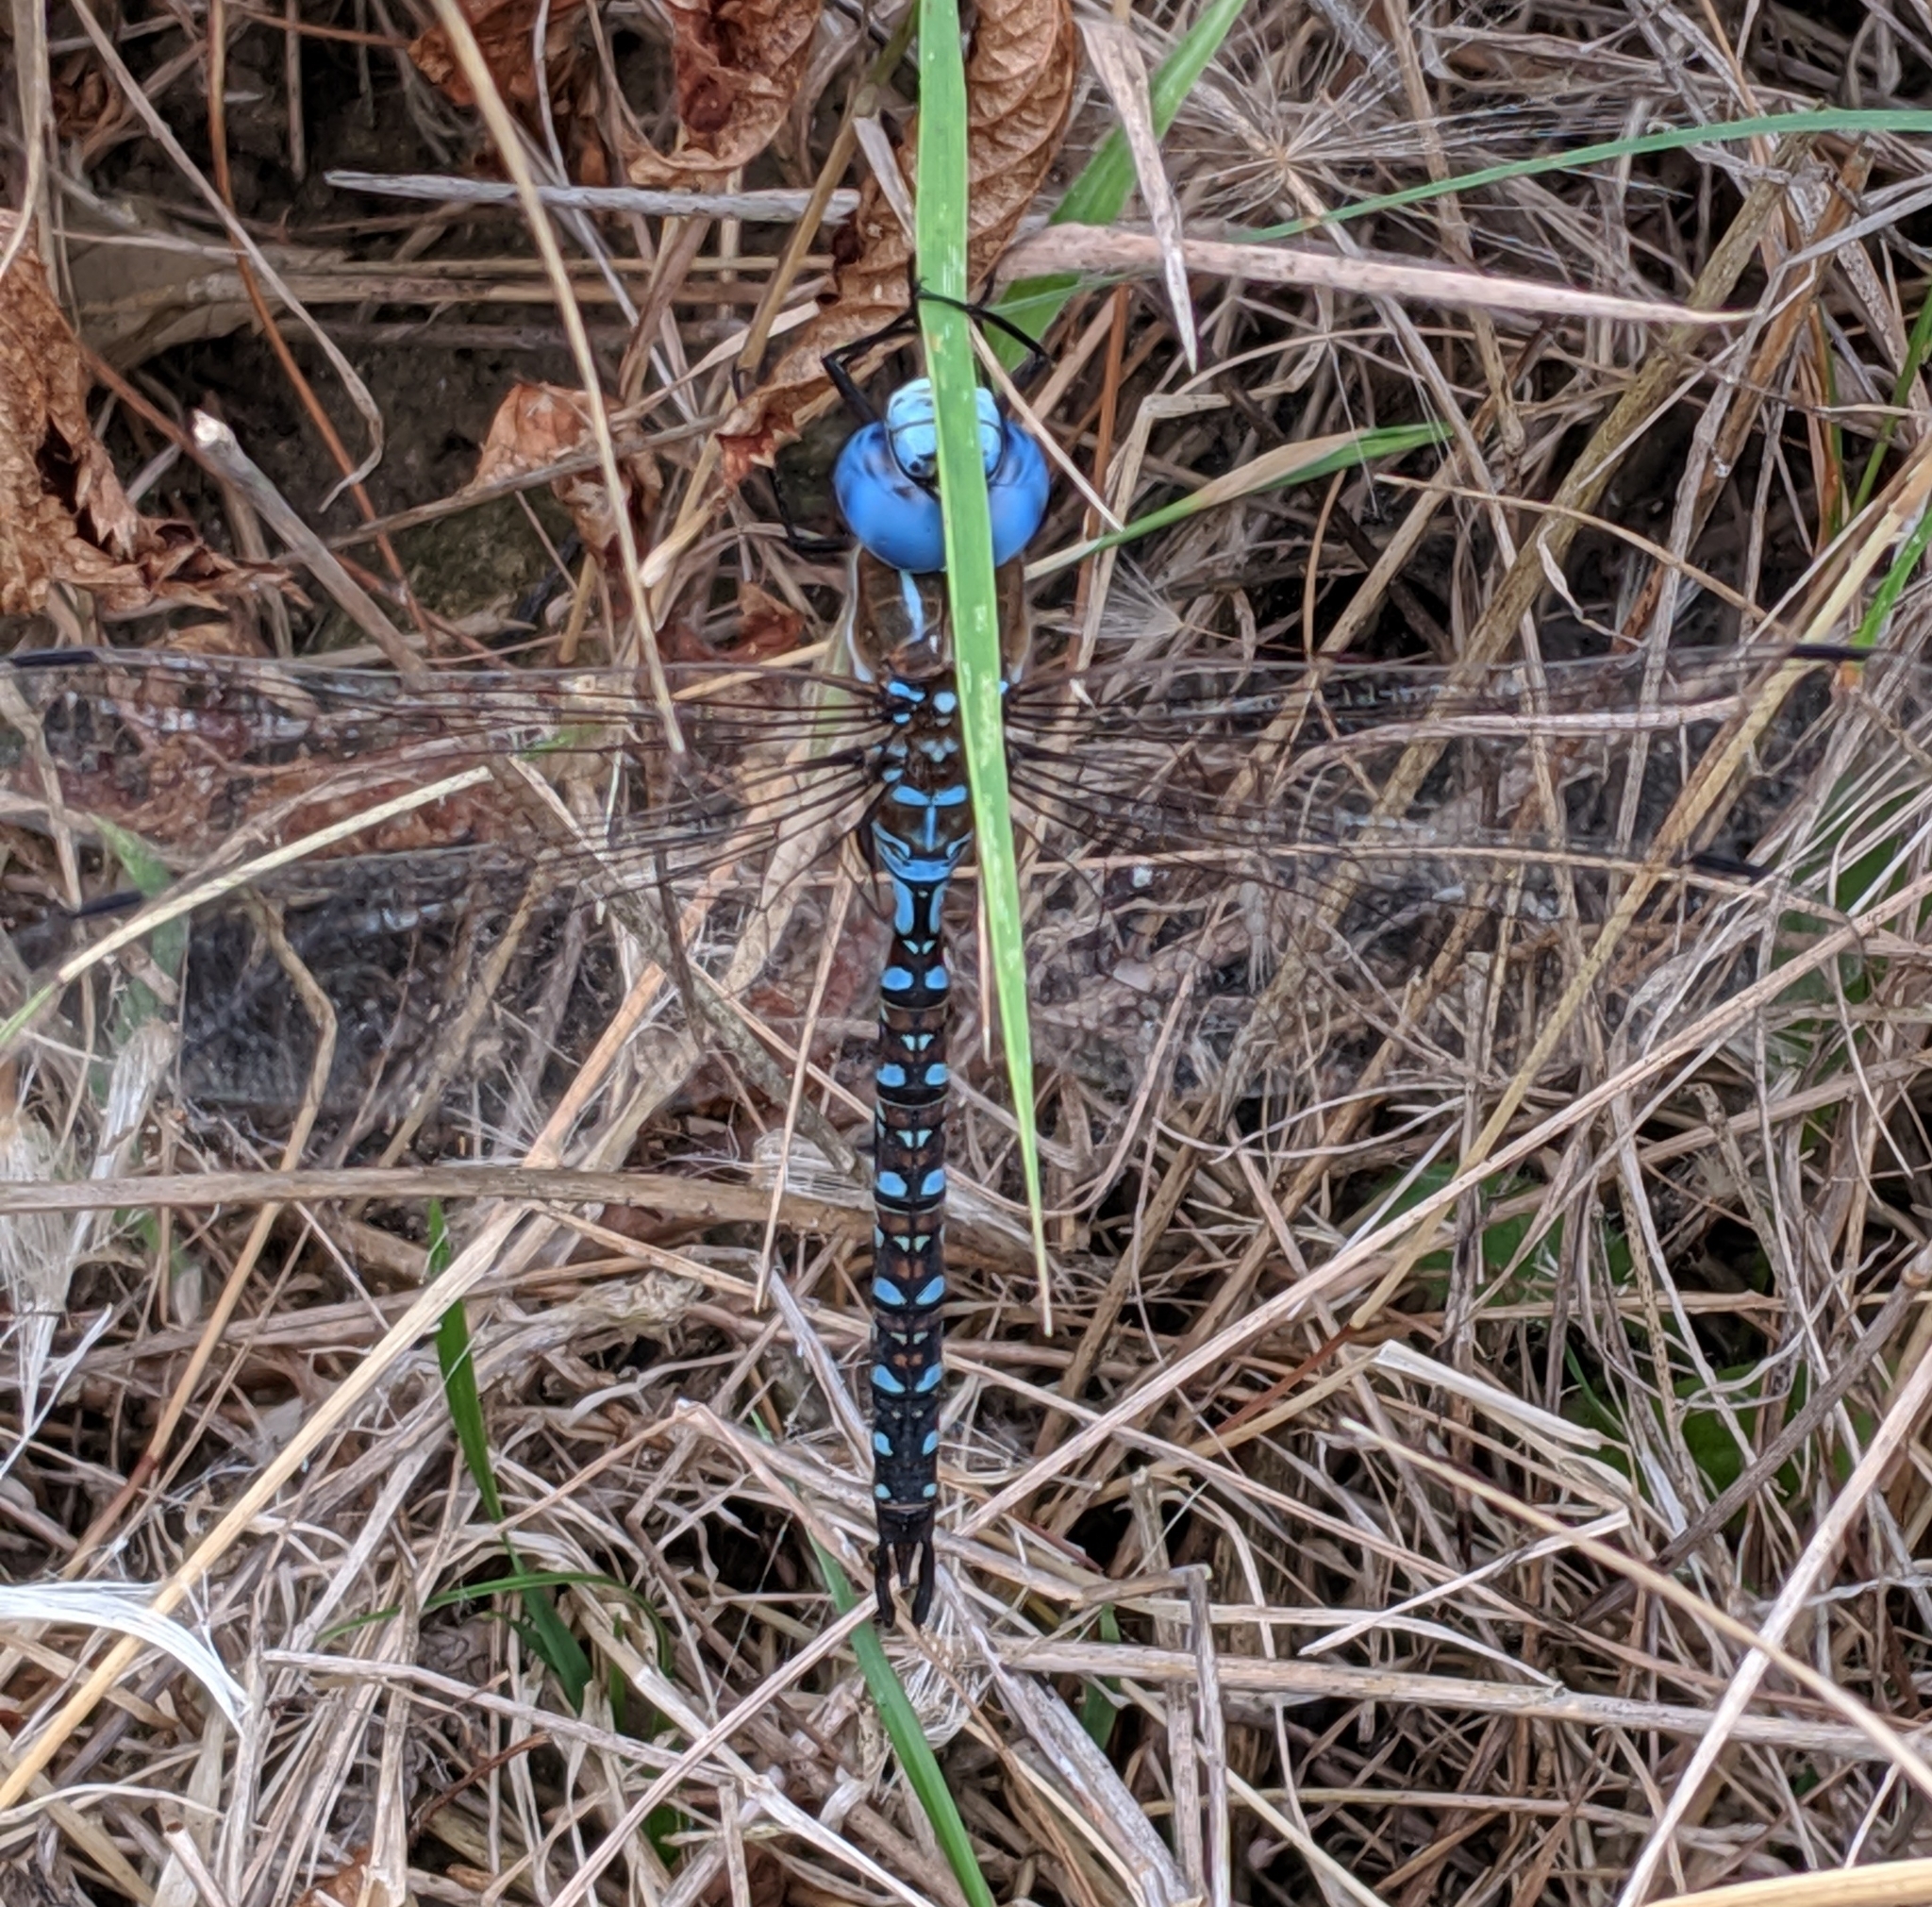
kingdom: Animalia
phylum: Arthropoda
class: Insecta
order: Odonata
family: Aeshnidae
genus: Rhionaeschna
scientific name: Rhionaeschna multicolor
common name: Blue-eyed darner
